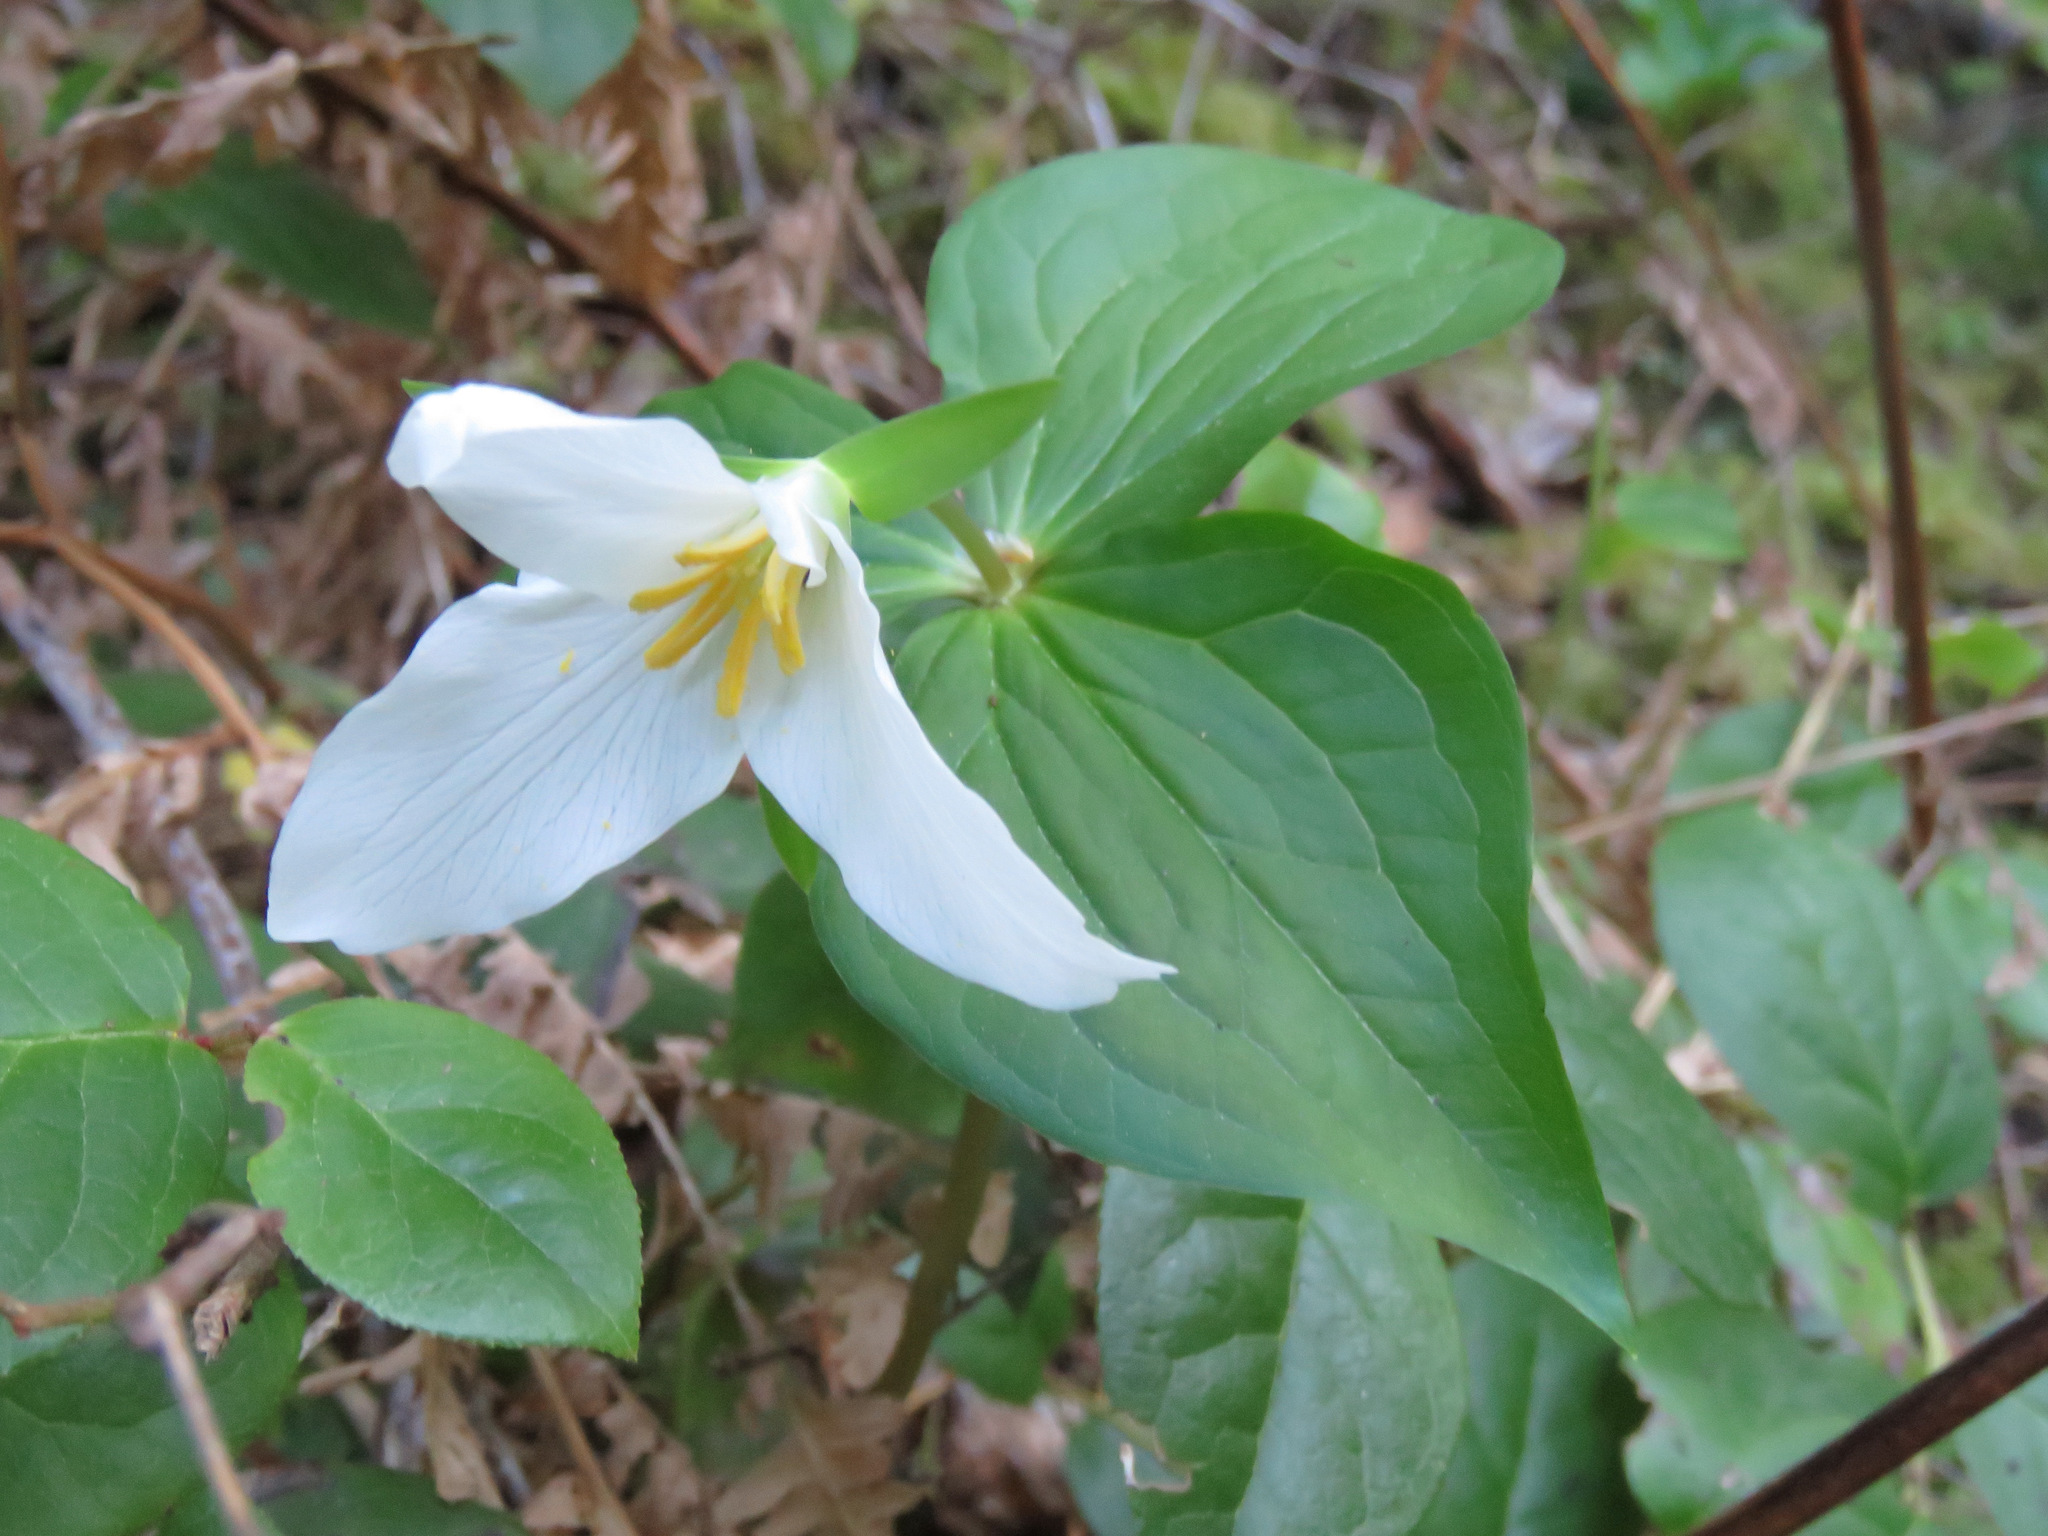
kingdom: Plantae
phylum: Tracheophyta
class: Liliopsida
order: Liliales
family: Melanthiaceae
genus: Trillium
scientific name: Trillium ovatum
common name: Pacific trillium
